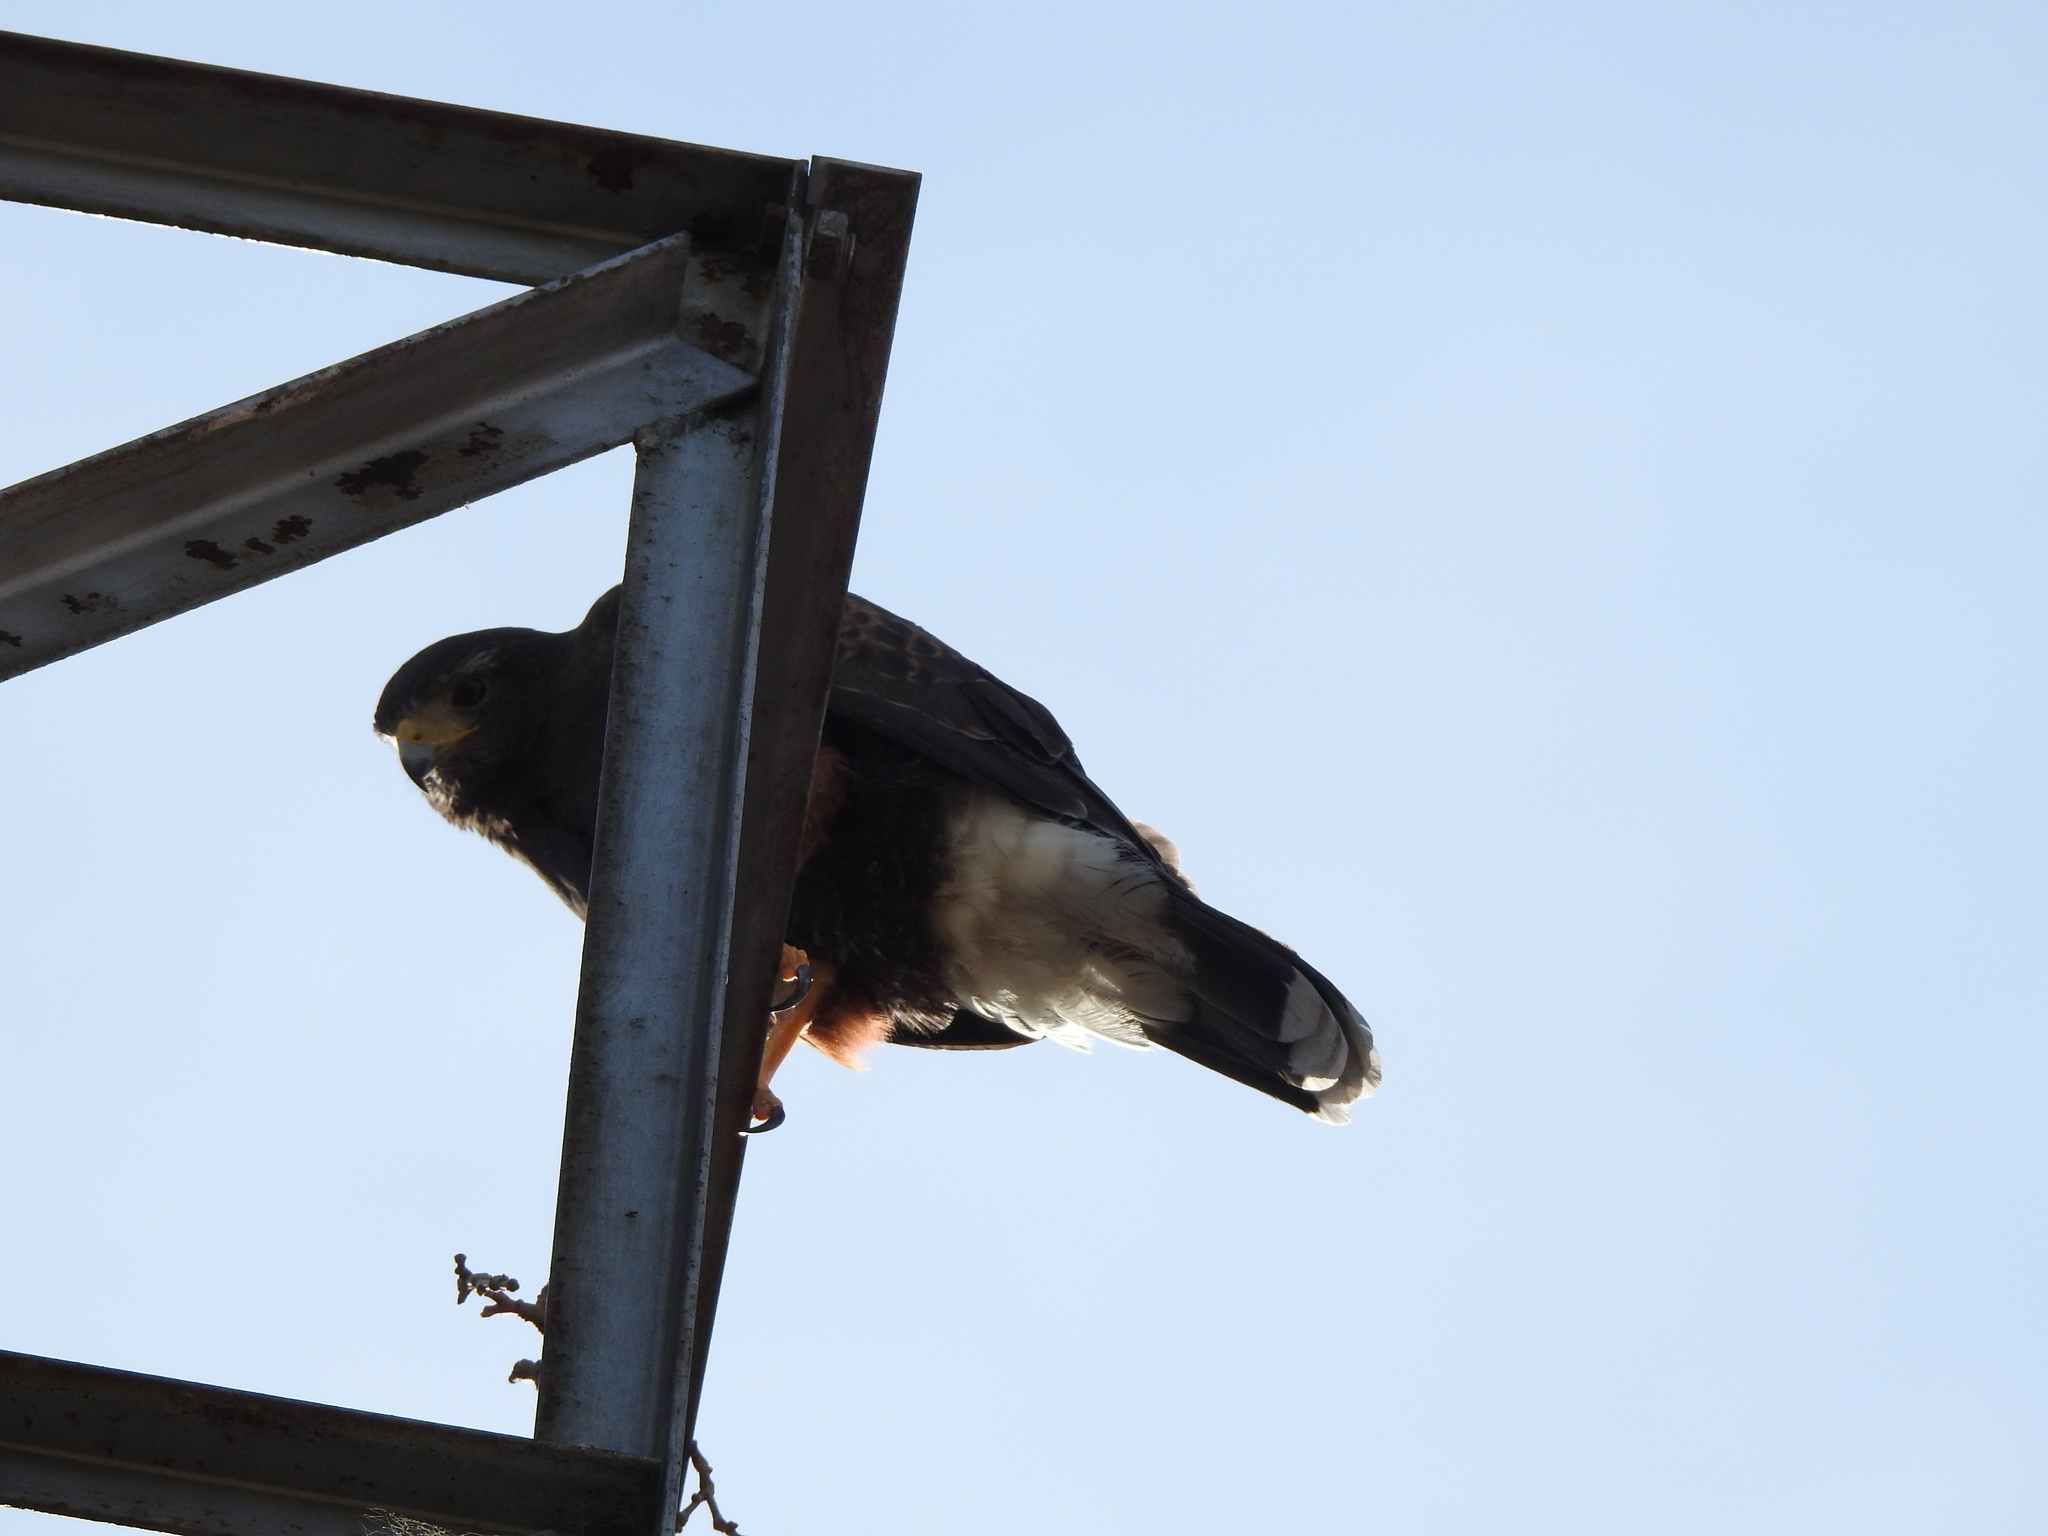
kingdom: Animalia
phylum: Chordata
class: Aves
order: Accipitriformes
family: Accipitridae
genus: Parabuteo
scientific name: Parabuteo unicinctus
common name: Harris's hawk
